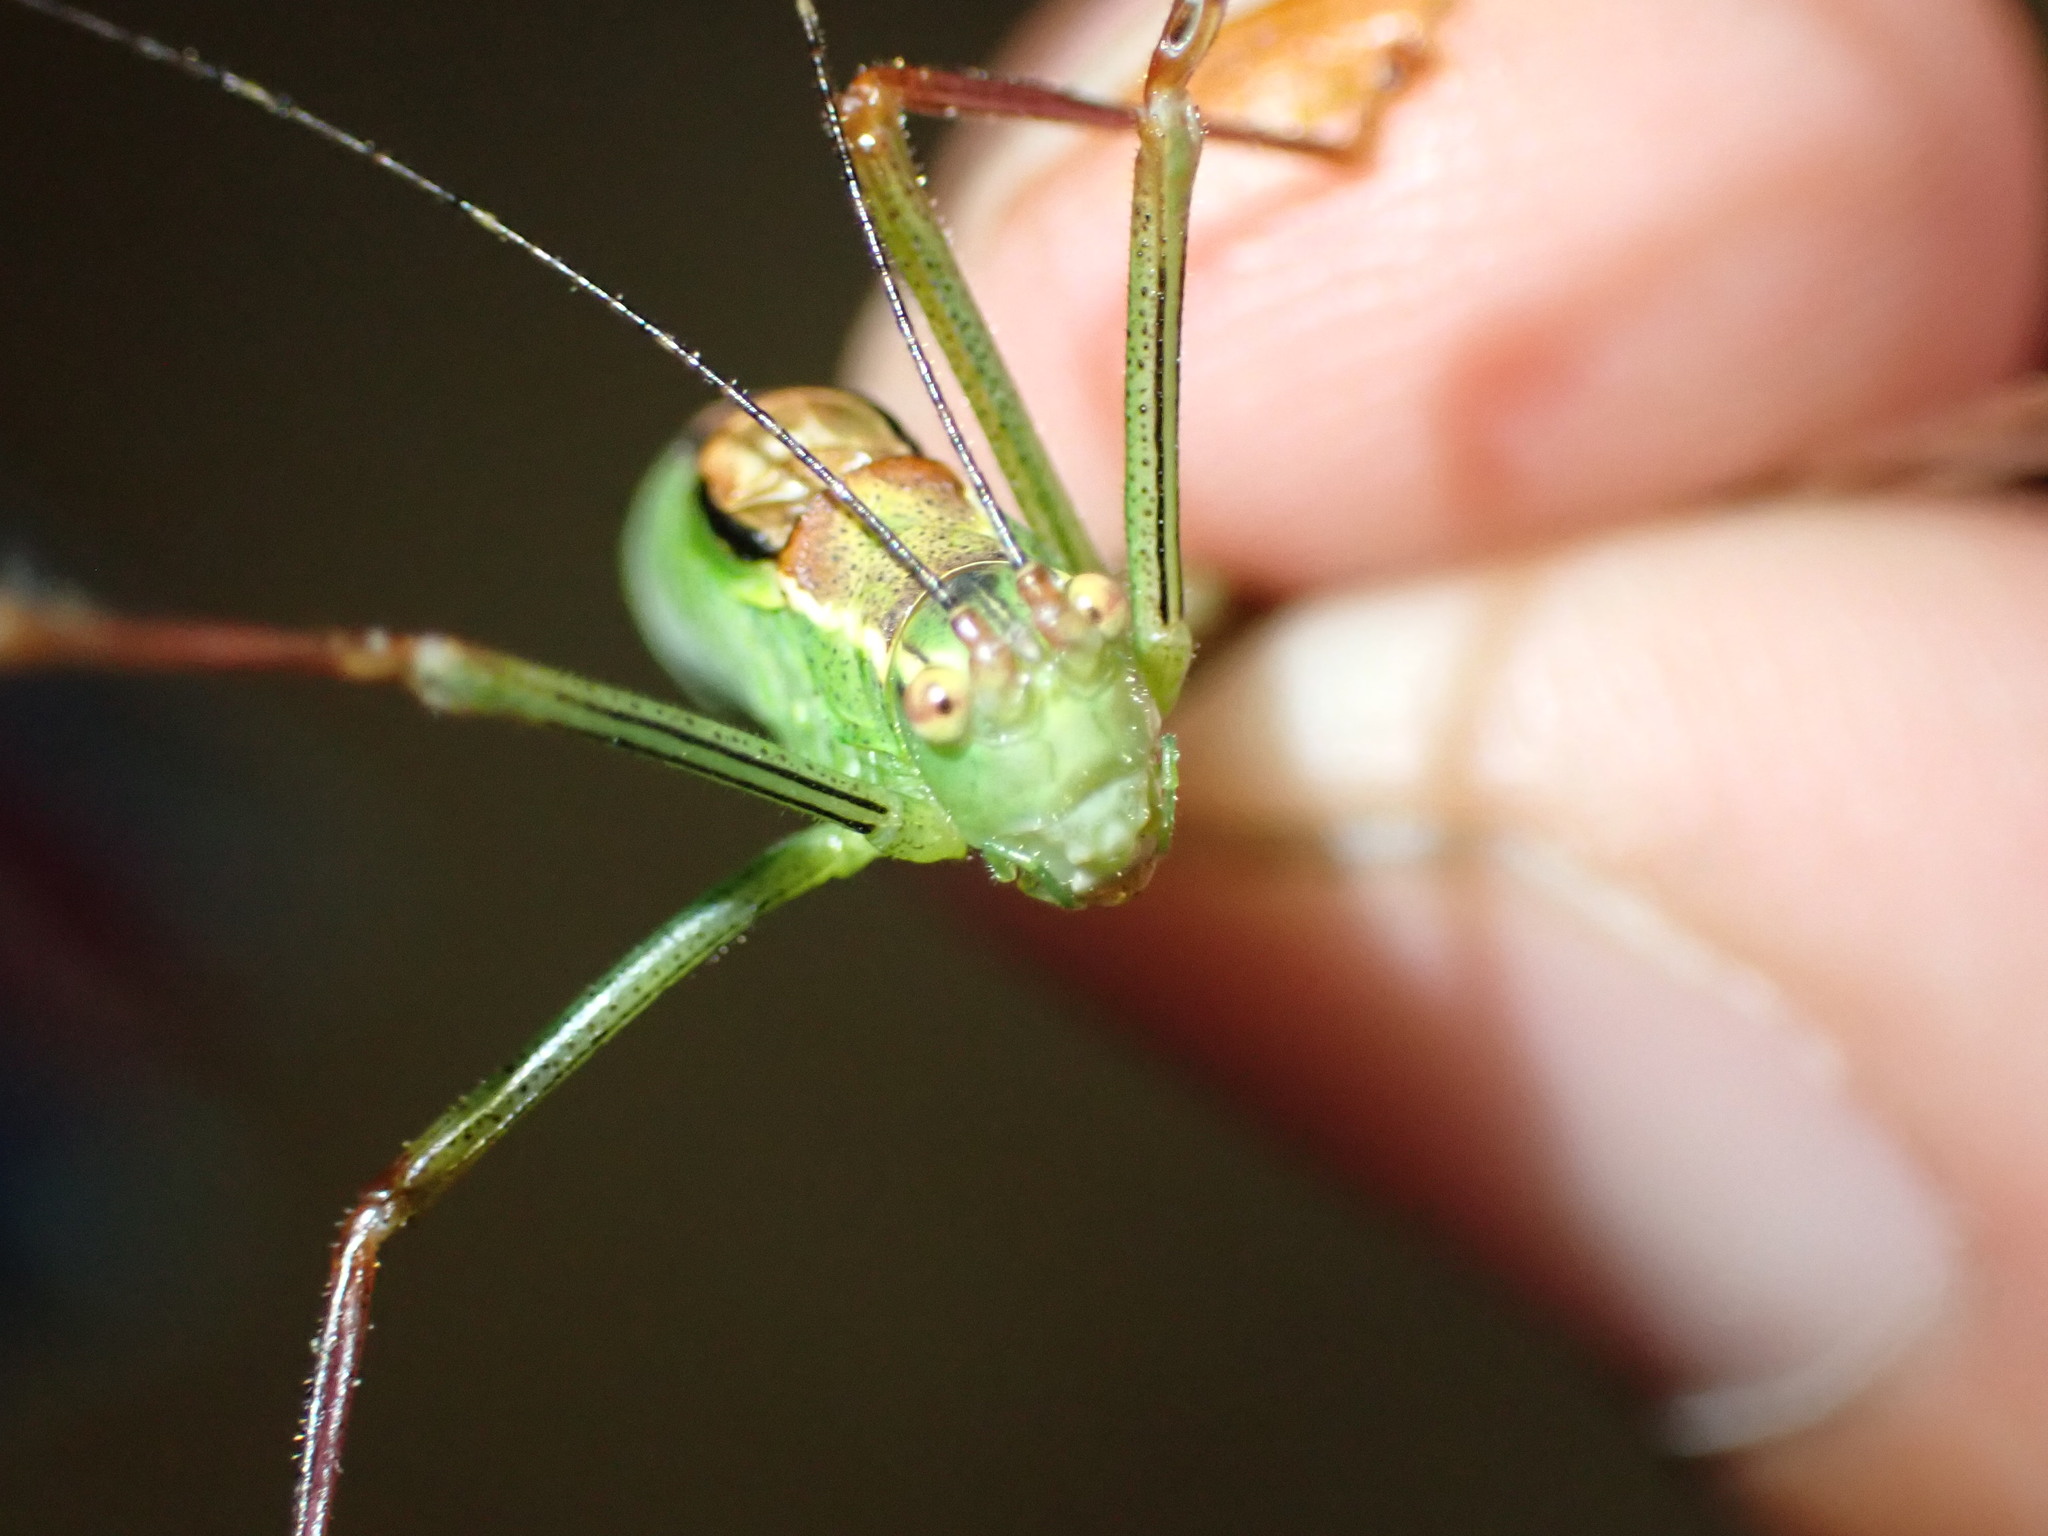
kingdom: Animalia
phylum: Arthropoda
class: Insecta
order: Orthoptera
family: Tettigoniidae
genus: Leptophyes
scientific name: Leptophyes punctatissima
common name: Speckled bush-cricket
